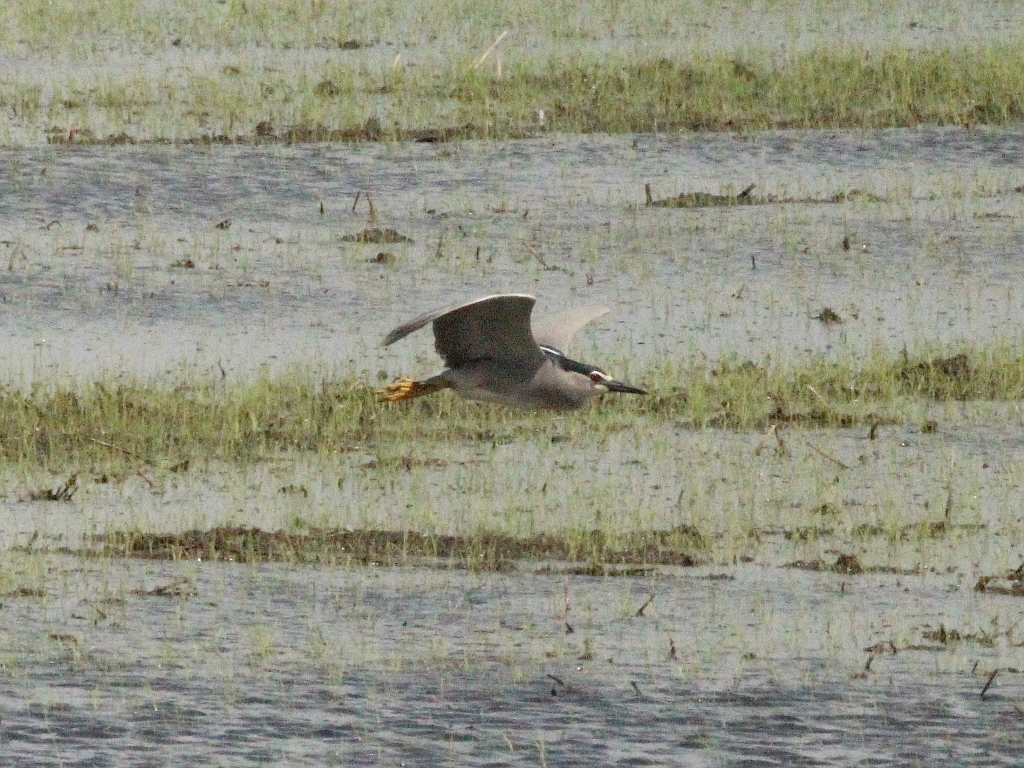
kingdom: Animalia
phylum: Chordata
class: Aves
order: Pelecaniformes
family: Ardeidae
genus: Nycticorax
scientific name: Nycticorax nycticorax
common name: Black-crowned night heron
